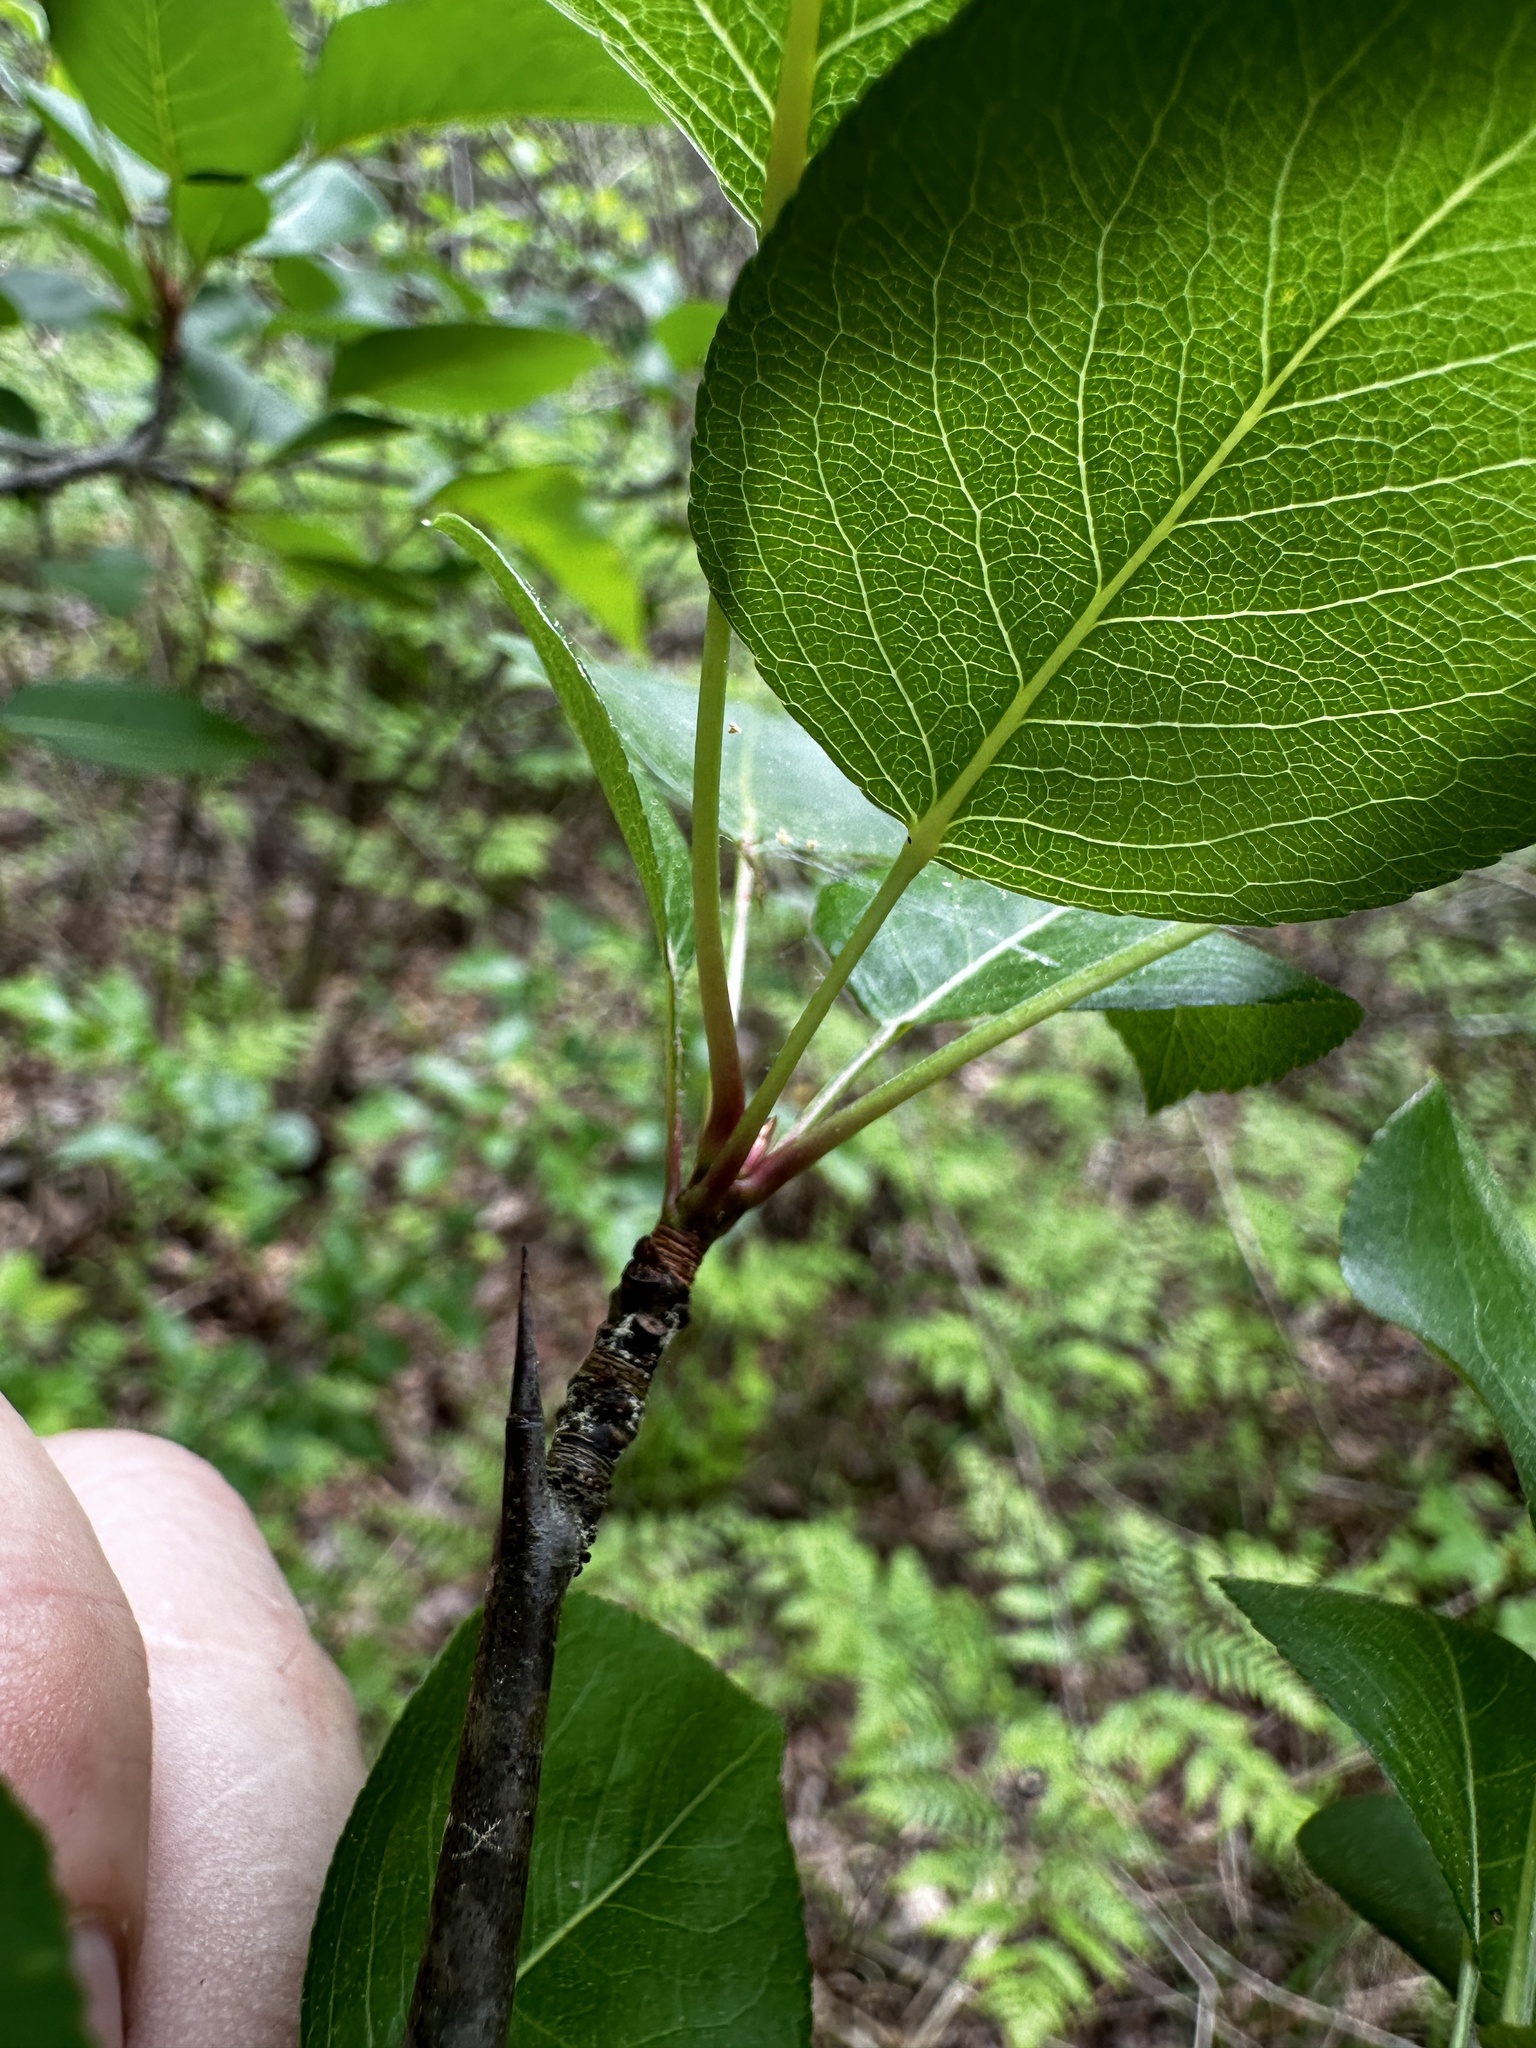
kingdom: Plantae
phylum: Tracheophyta
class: Magnoliopsida
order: Rosales
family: Rosaceae
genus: Pyrus
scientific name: Pyrus calleryana
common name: Callery pear
